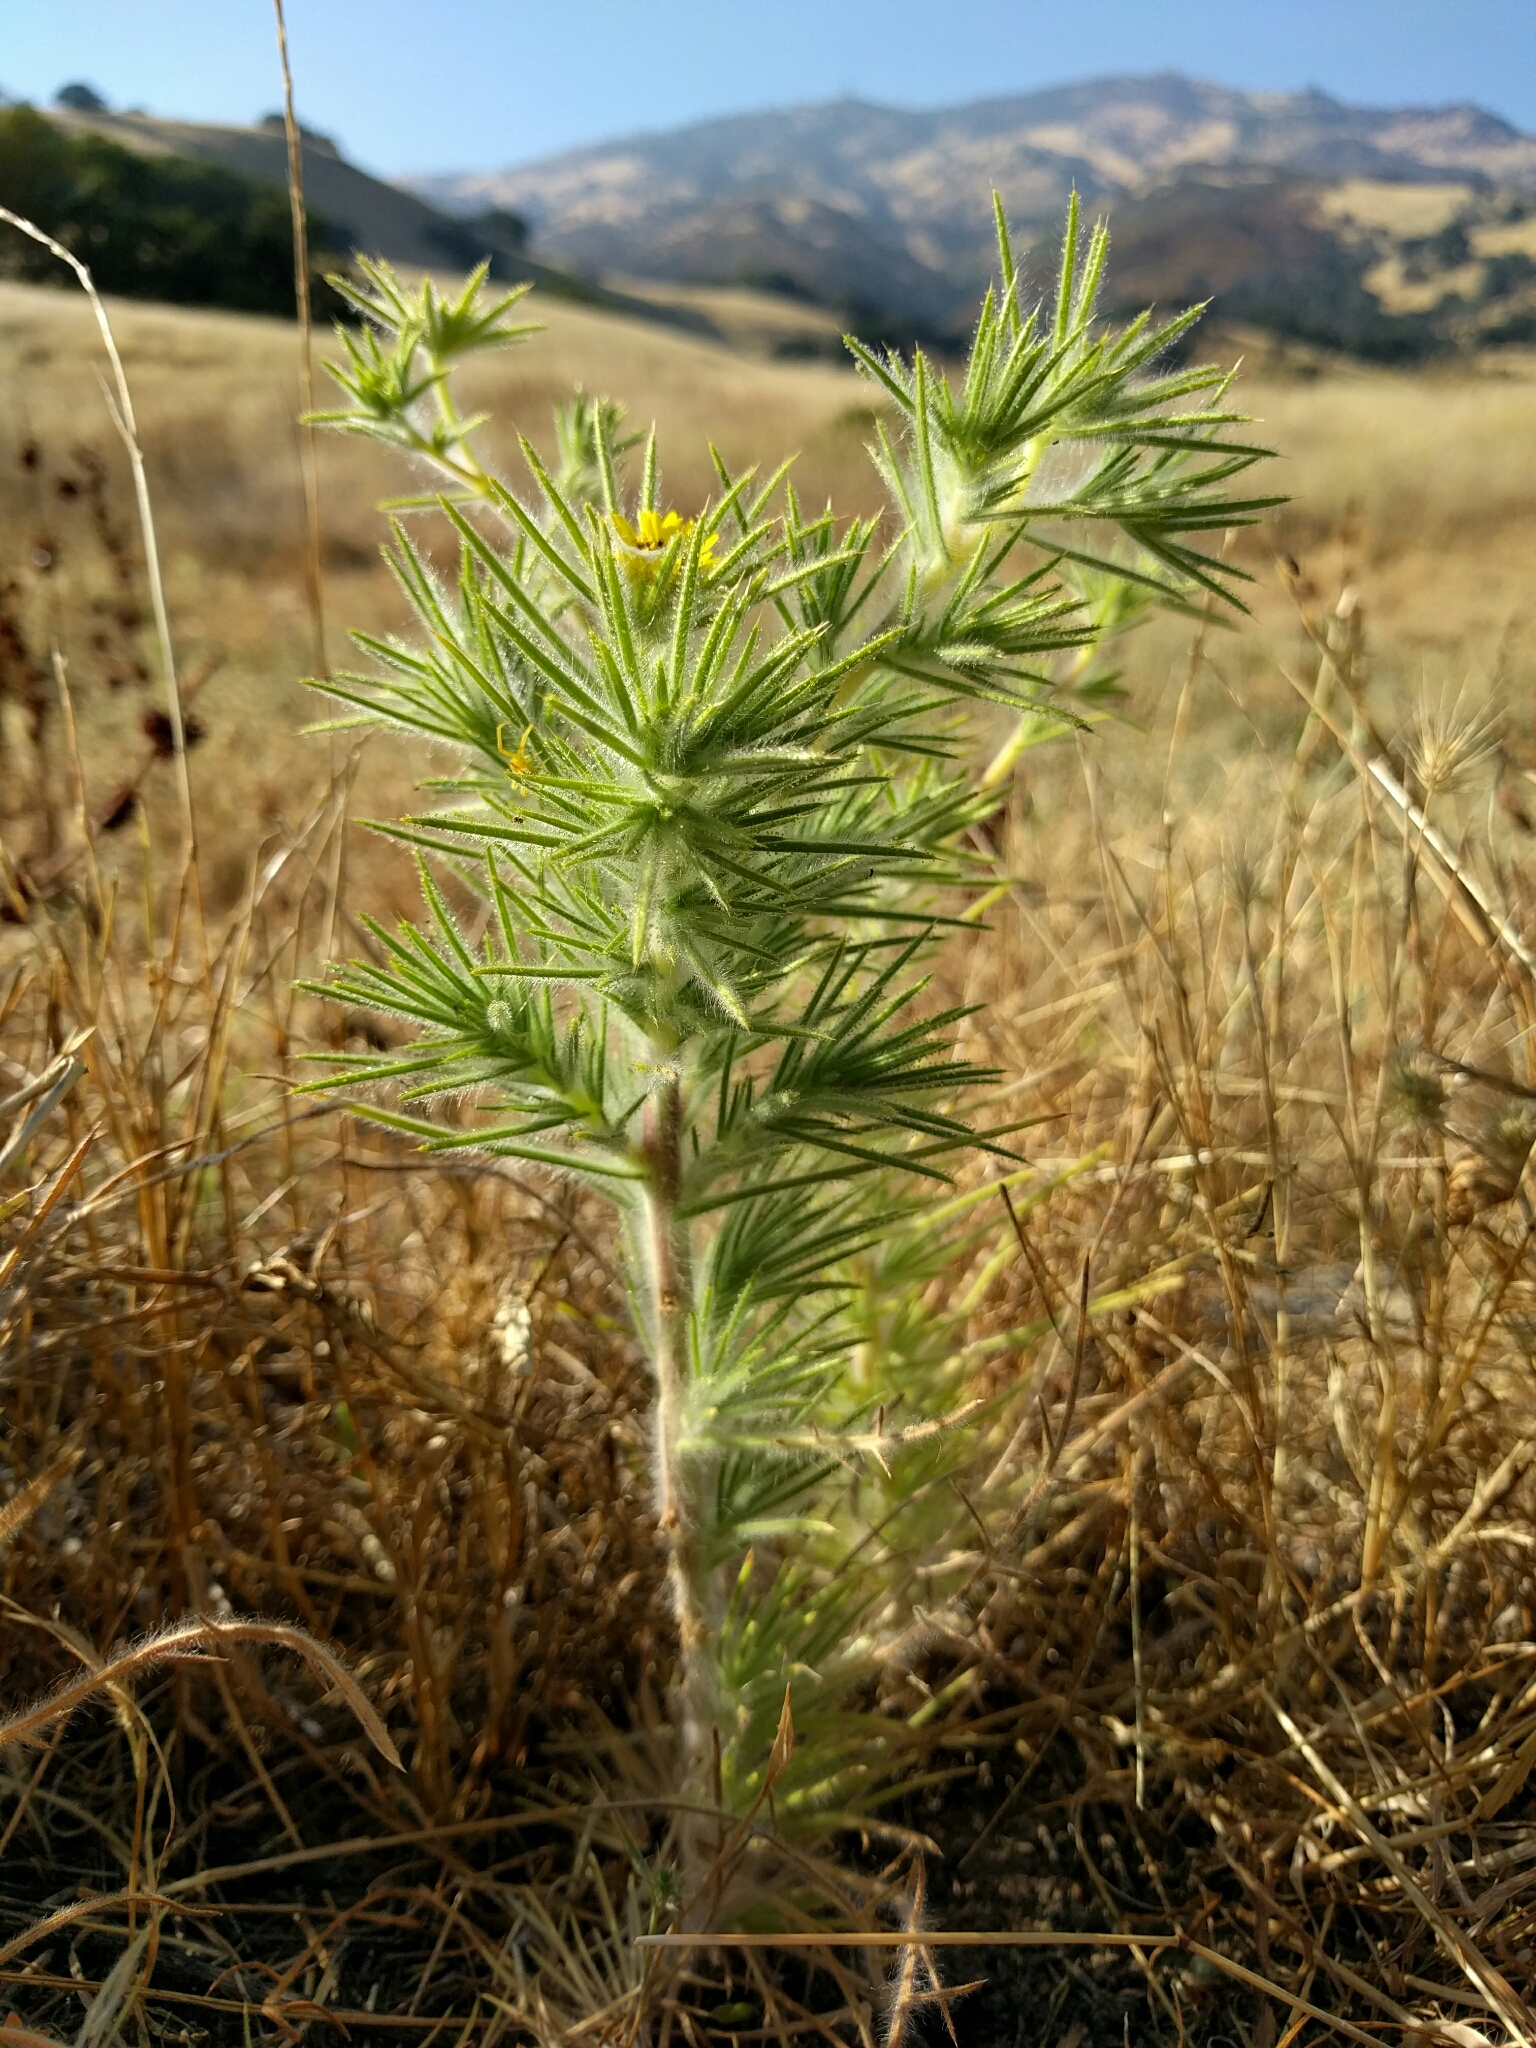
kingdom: Plantae
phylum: Tracheophyta
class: Magnoliopsida
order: Asterales
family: Asteraceae
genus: Centromadia
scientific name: Centromadia fitchii
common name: Fitch's spikeweed
